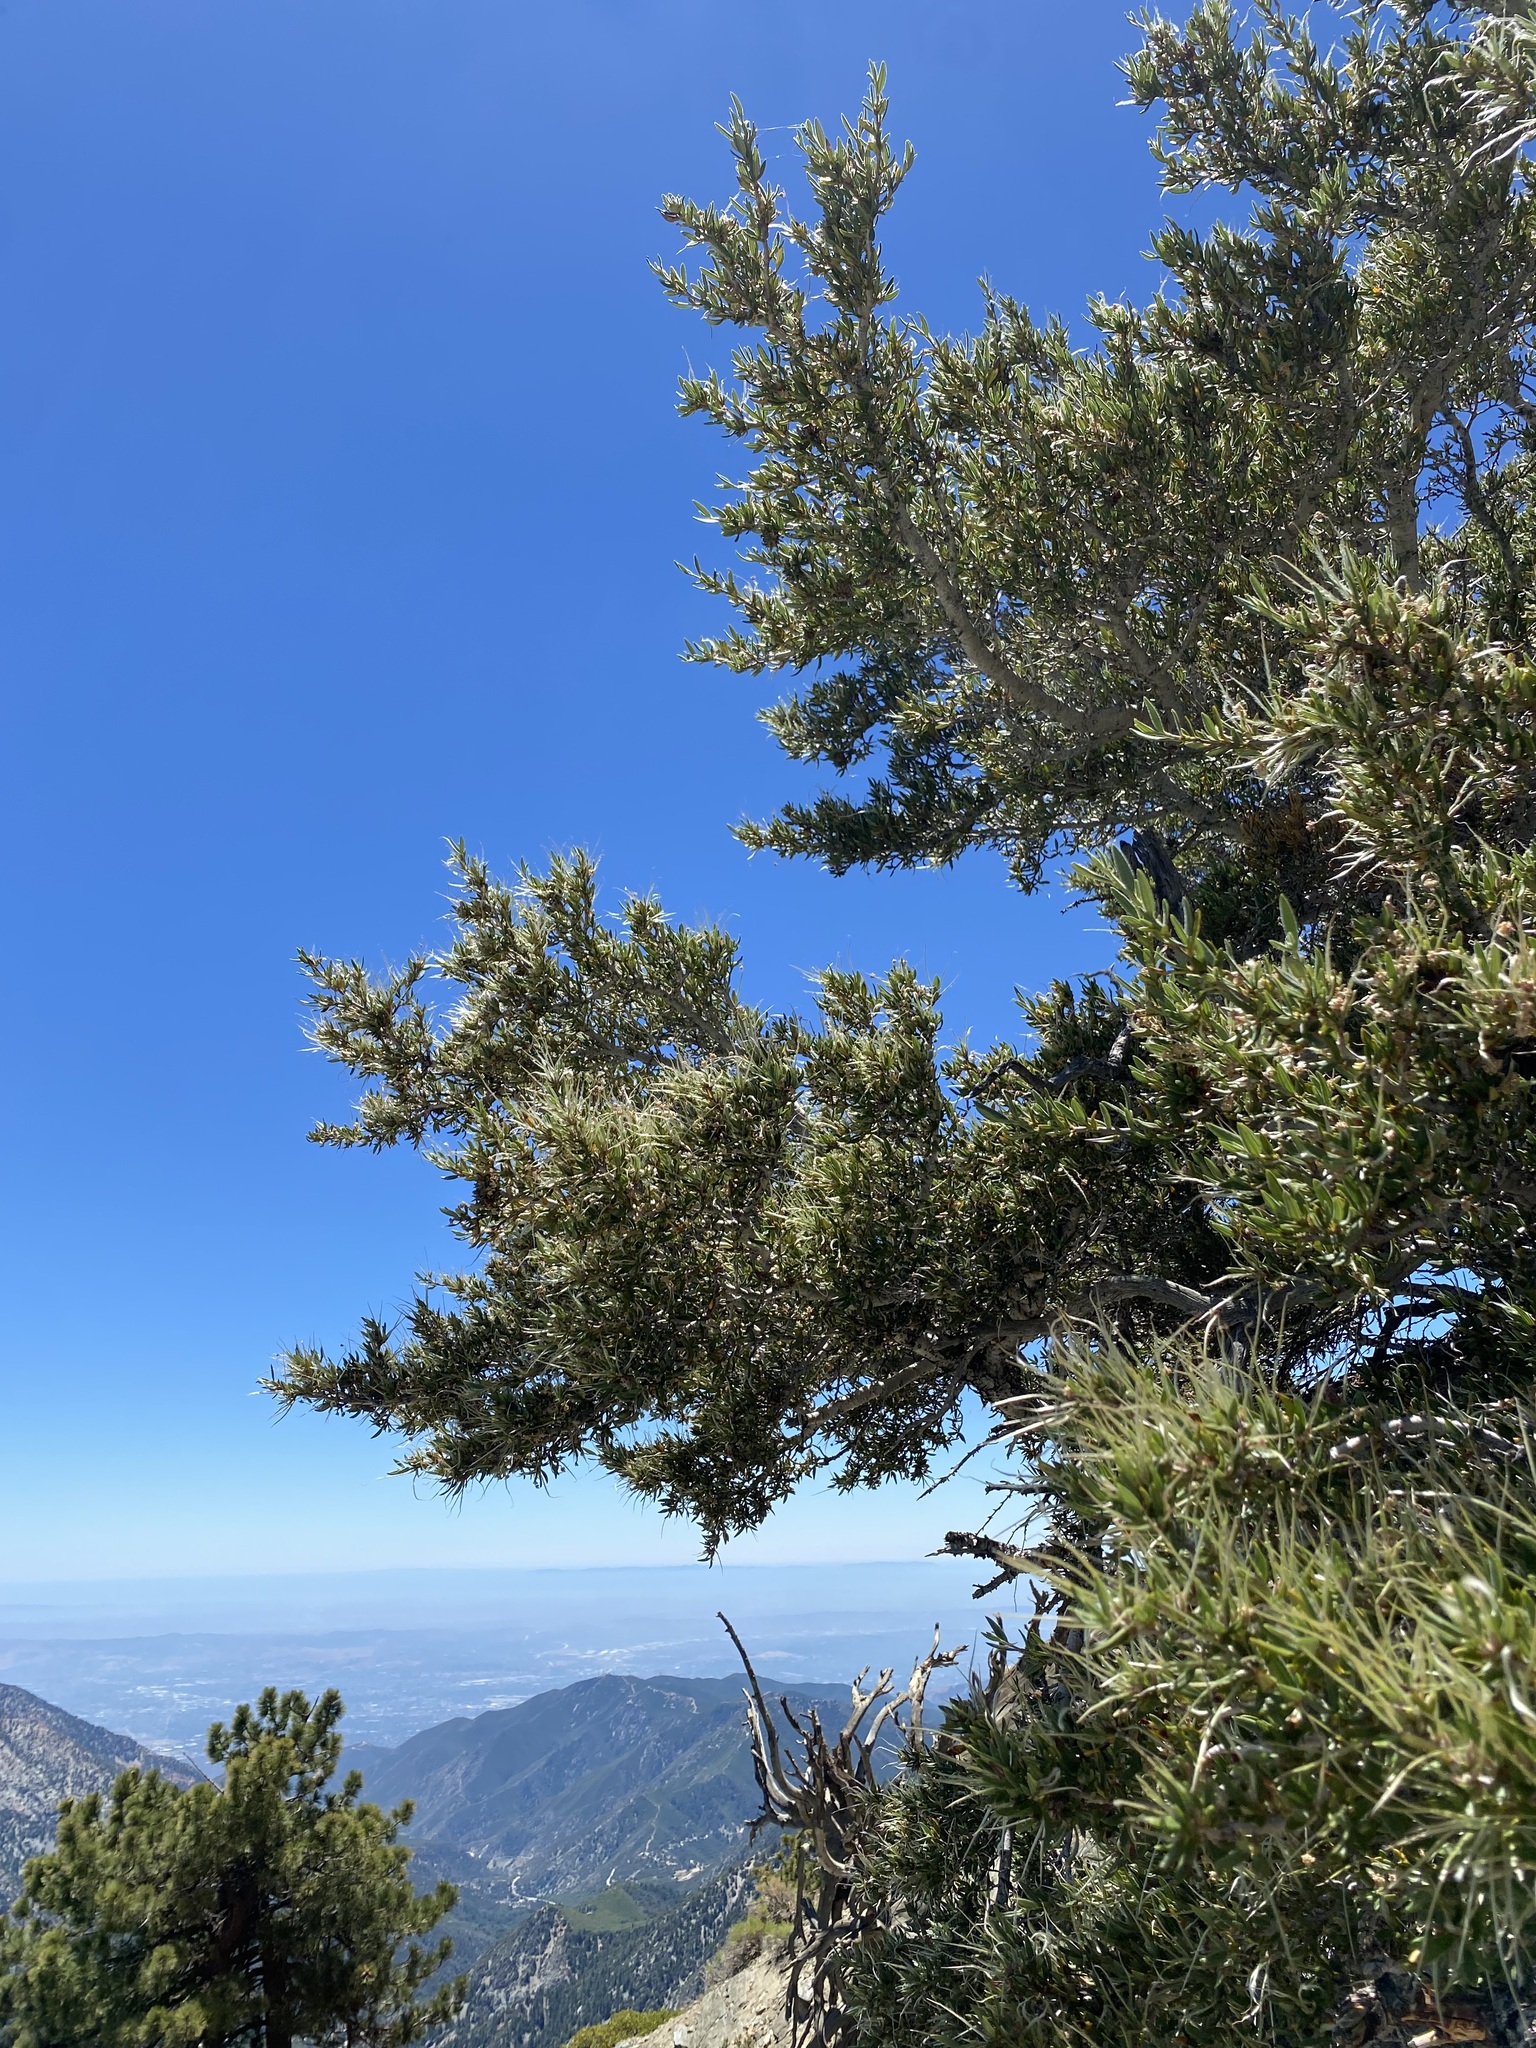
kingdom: Plantae
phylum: Tracheophyta
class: Magnoliopsida
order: Rosales
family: Rosaceae
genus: Cercocarpus
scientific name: Cercocarpus ledifolius
